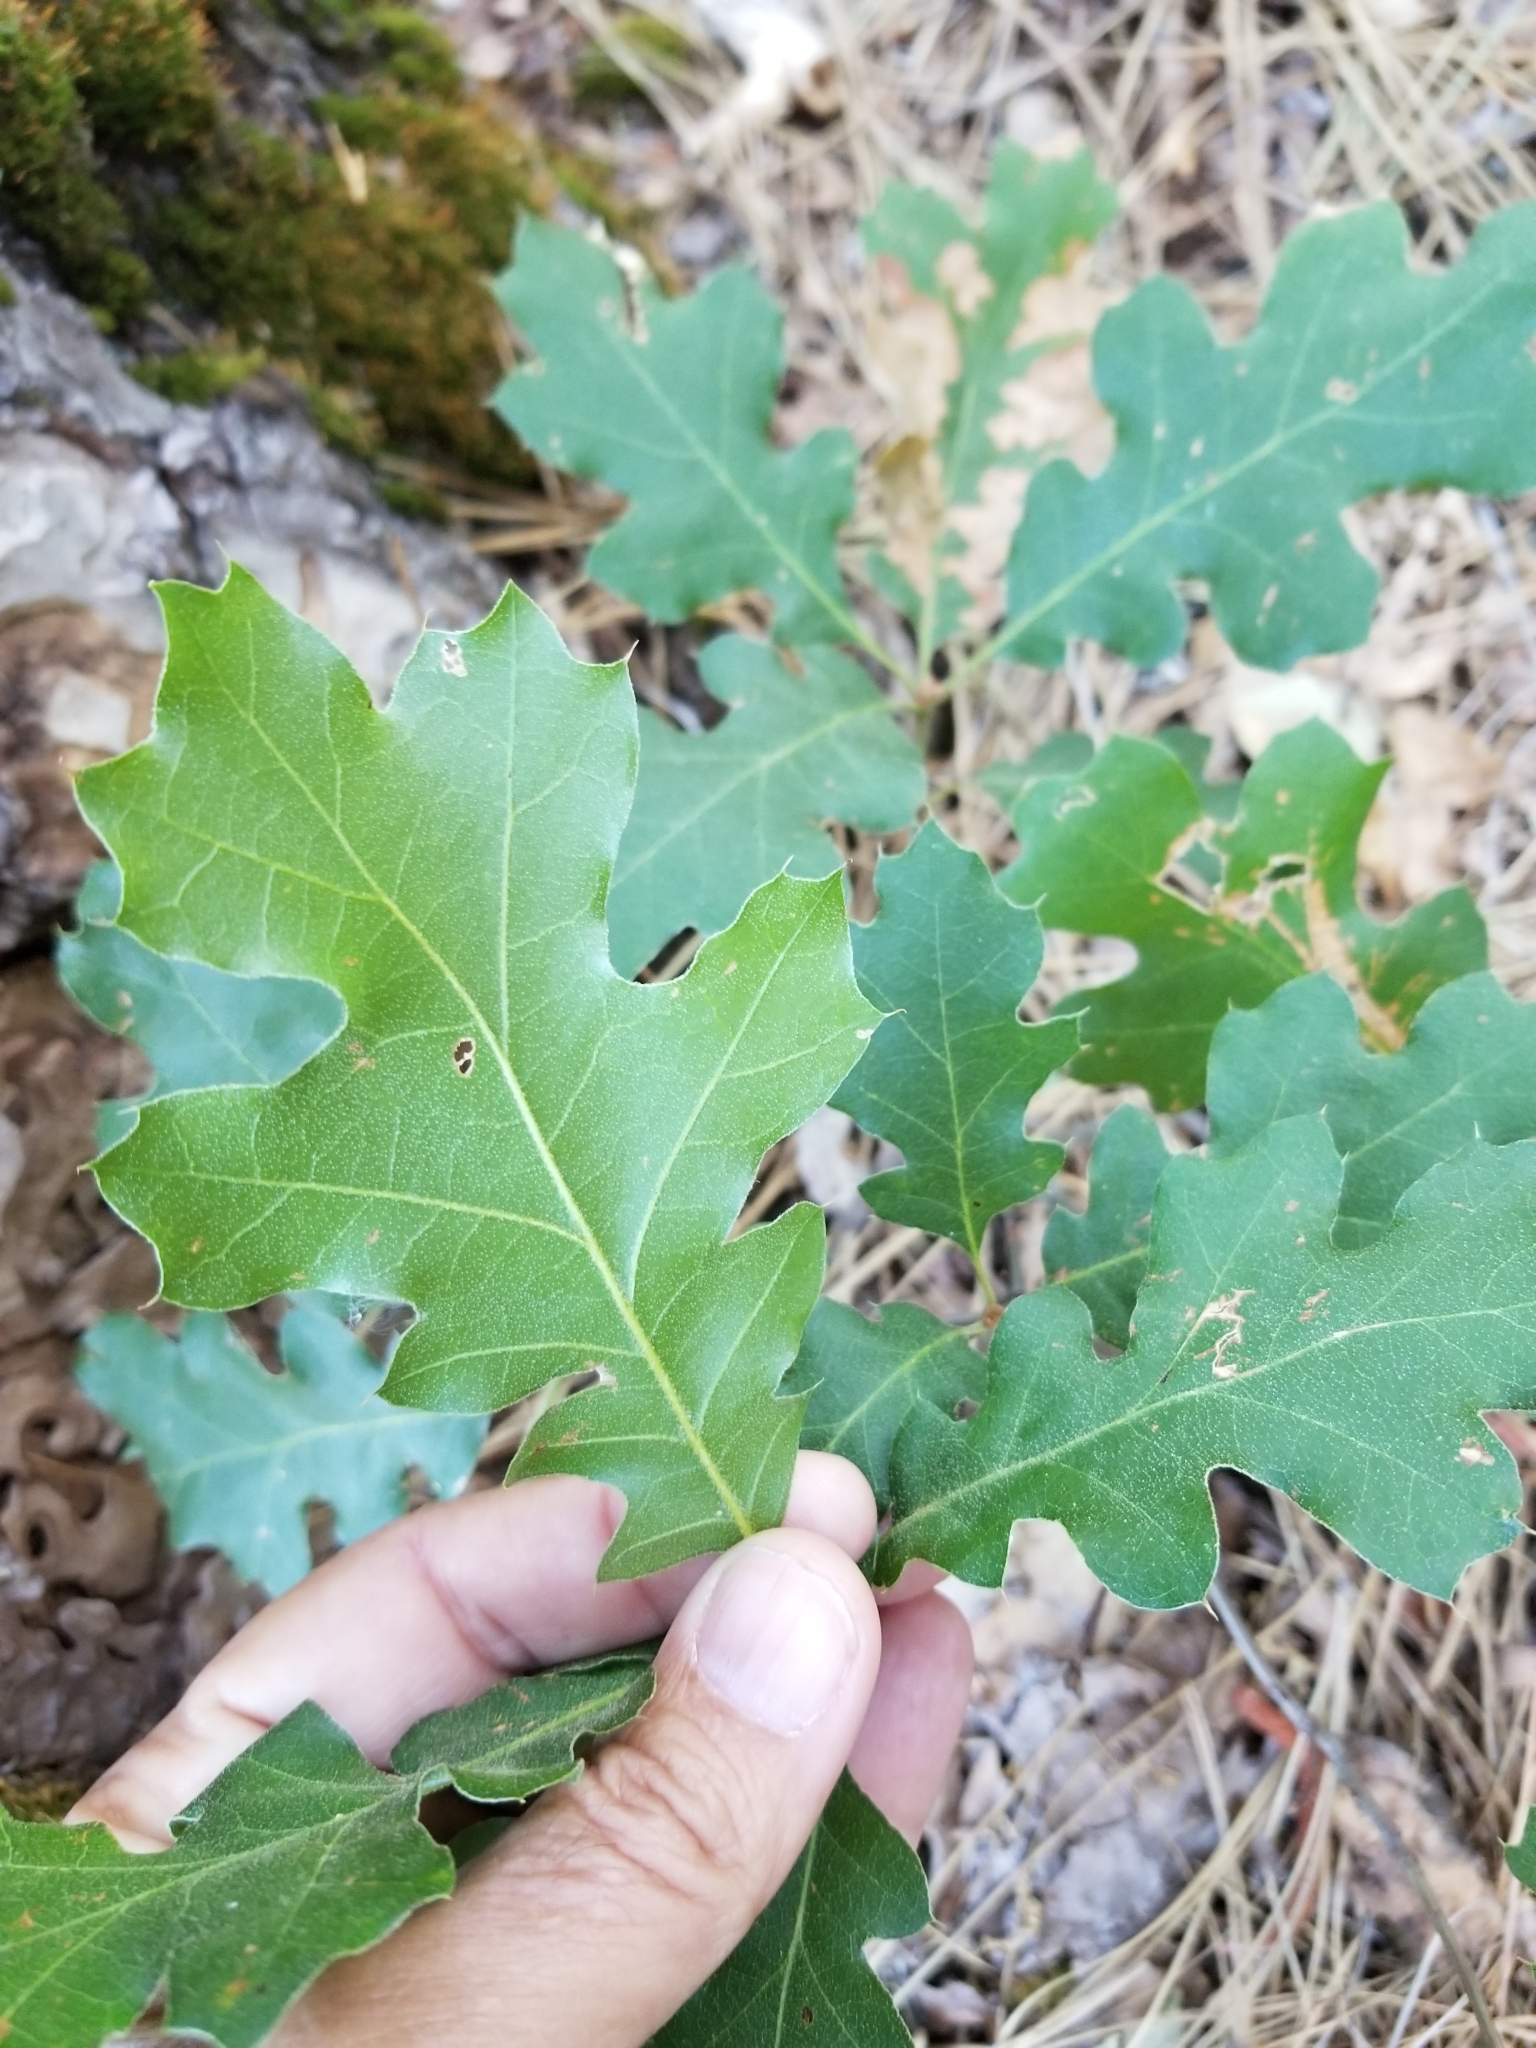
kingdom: Plantae
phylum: Tracheophyta
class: Magnoliopsida
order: Fagales
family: Fagaceae
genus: Quercus
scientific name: Quercus kelloggii
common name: California black oak
